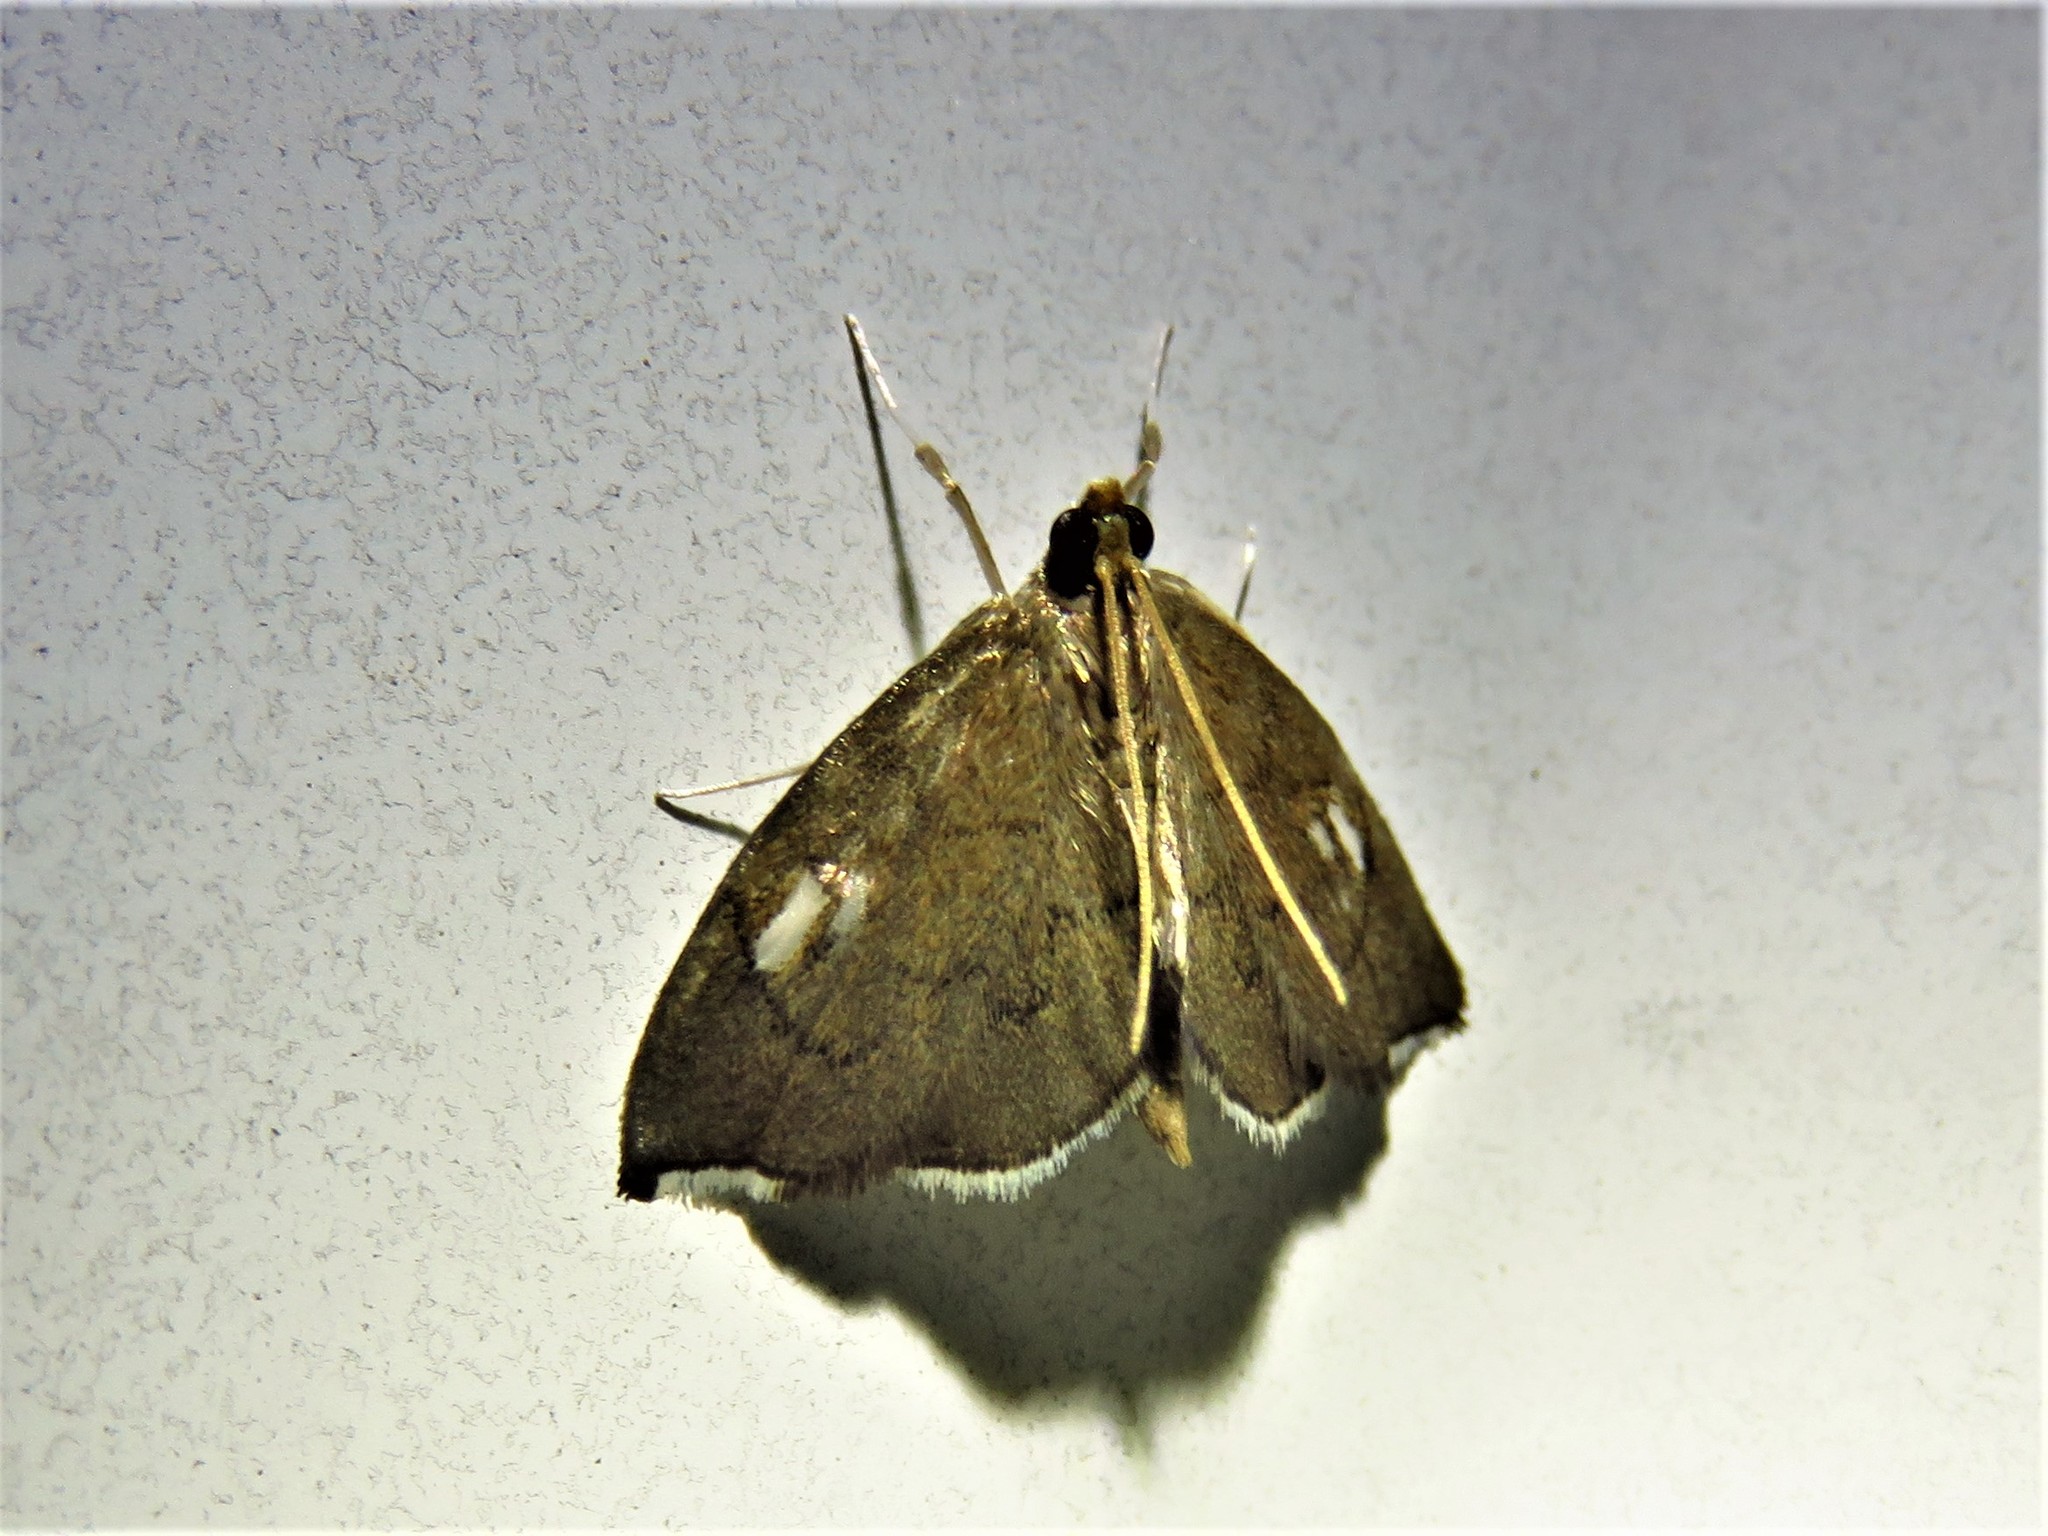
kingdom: Animalia
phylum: Arthropoda
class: Insecta
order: Lepidoptera
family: Crambidae
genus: Perispasta
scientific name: Perispasta caeculalis
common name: Titian peale's moth
